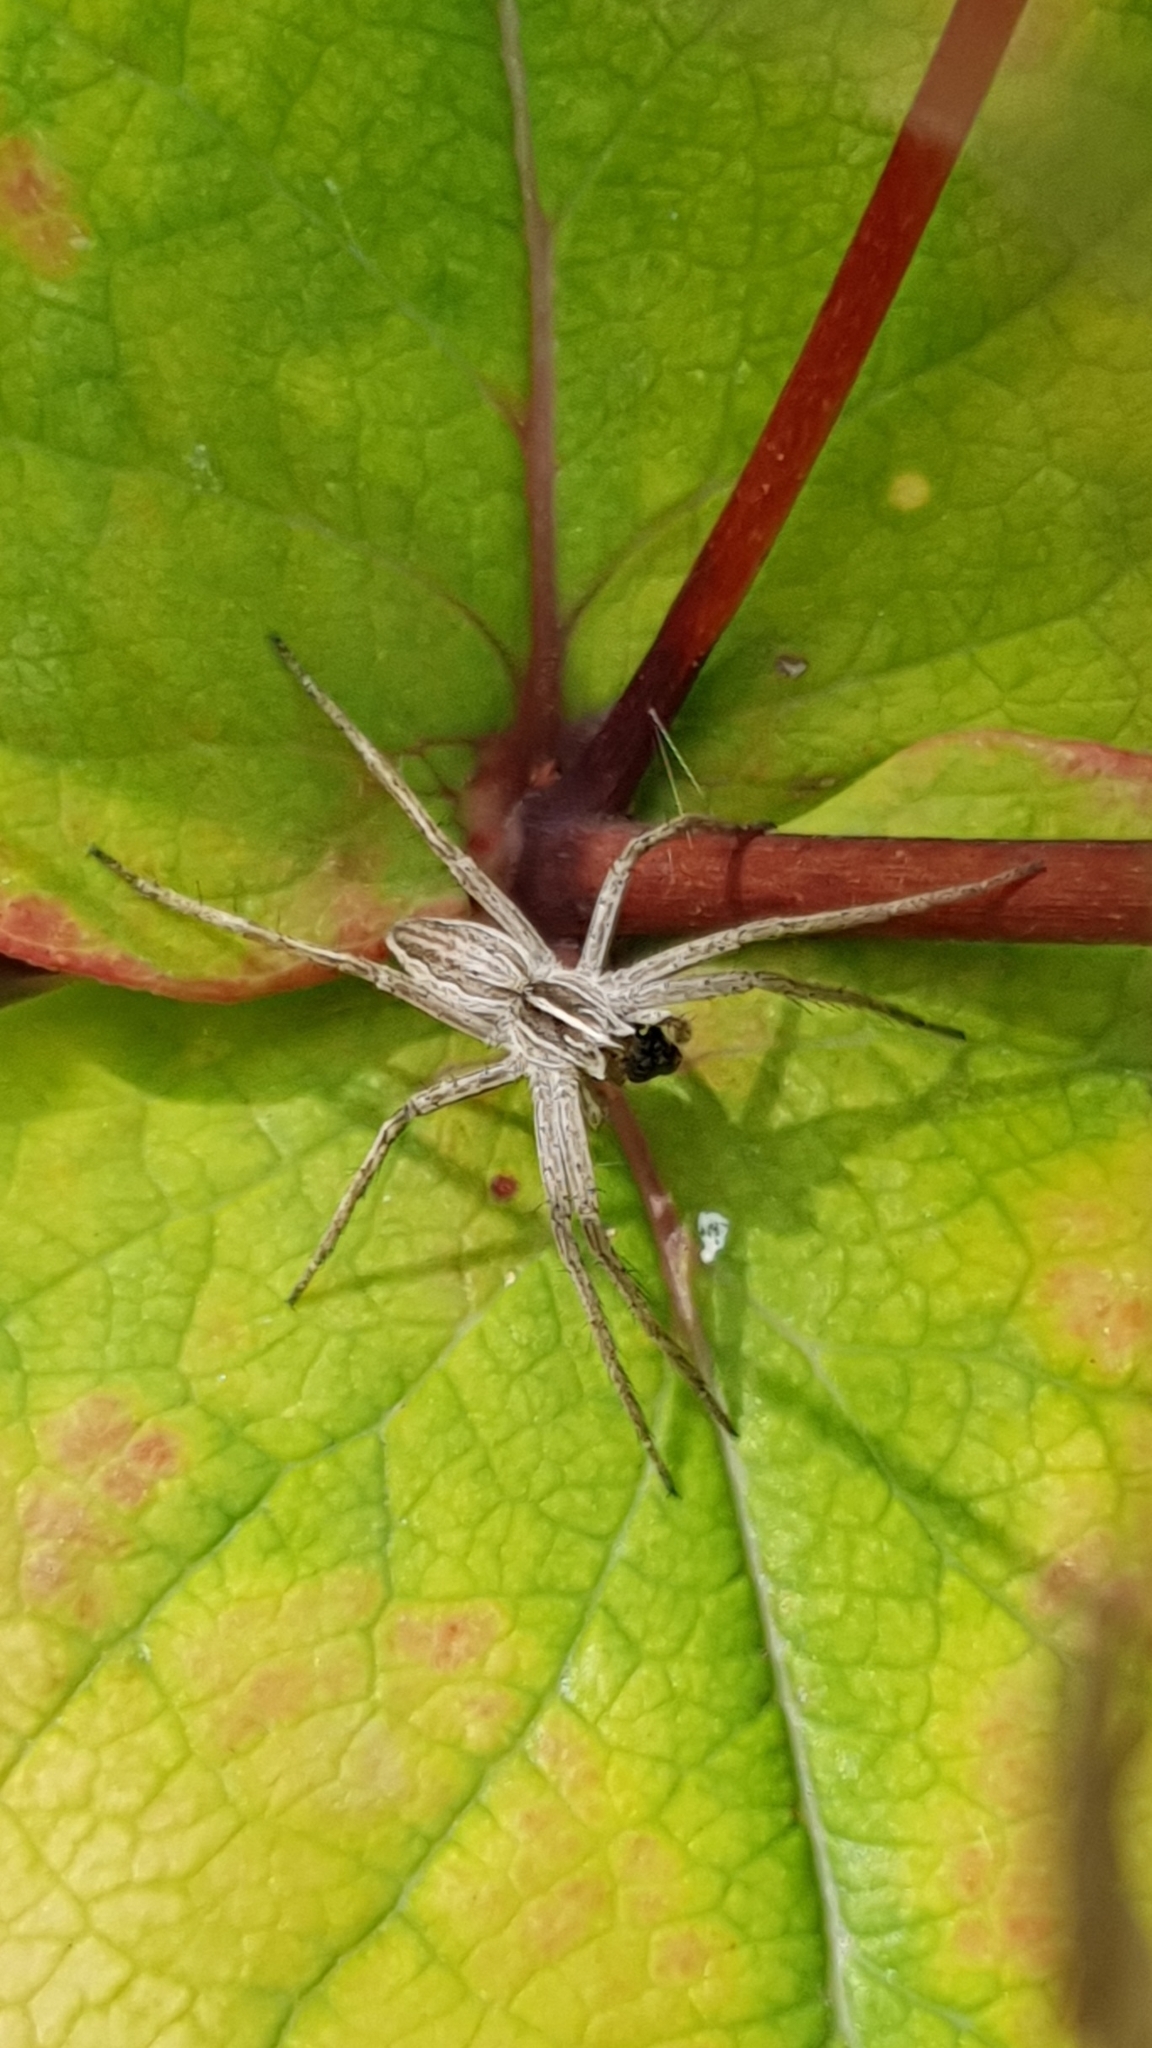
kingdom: Animalia
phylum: Arthropoda
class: Arachnida
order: Araneae
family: Pisauridae
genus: Pisaura
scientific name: Pisaura mirabilis
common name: Tent spider
